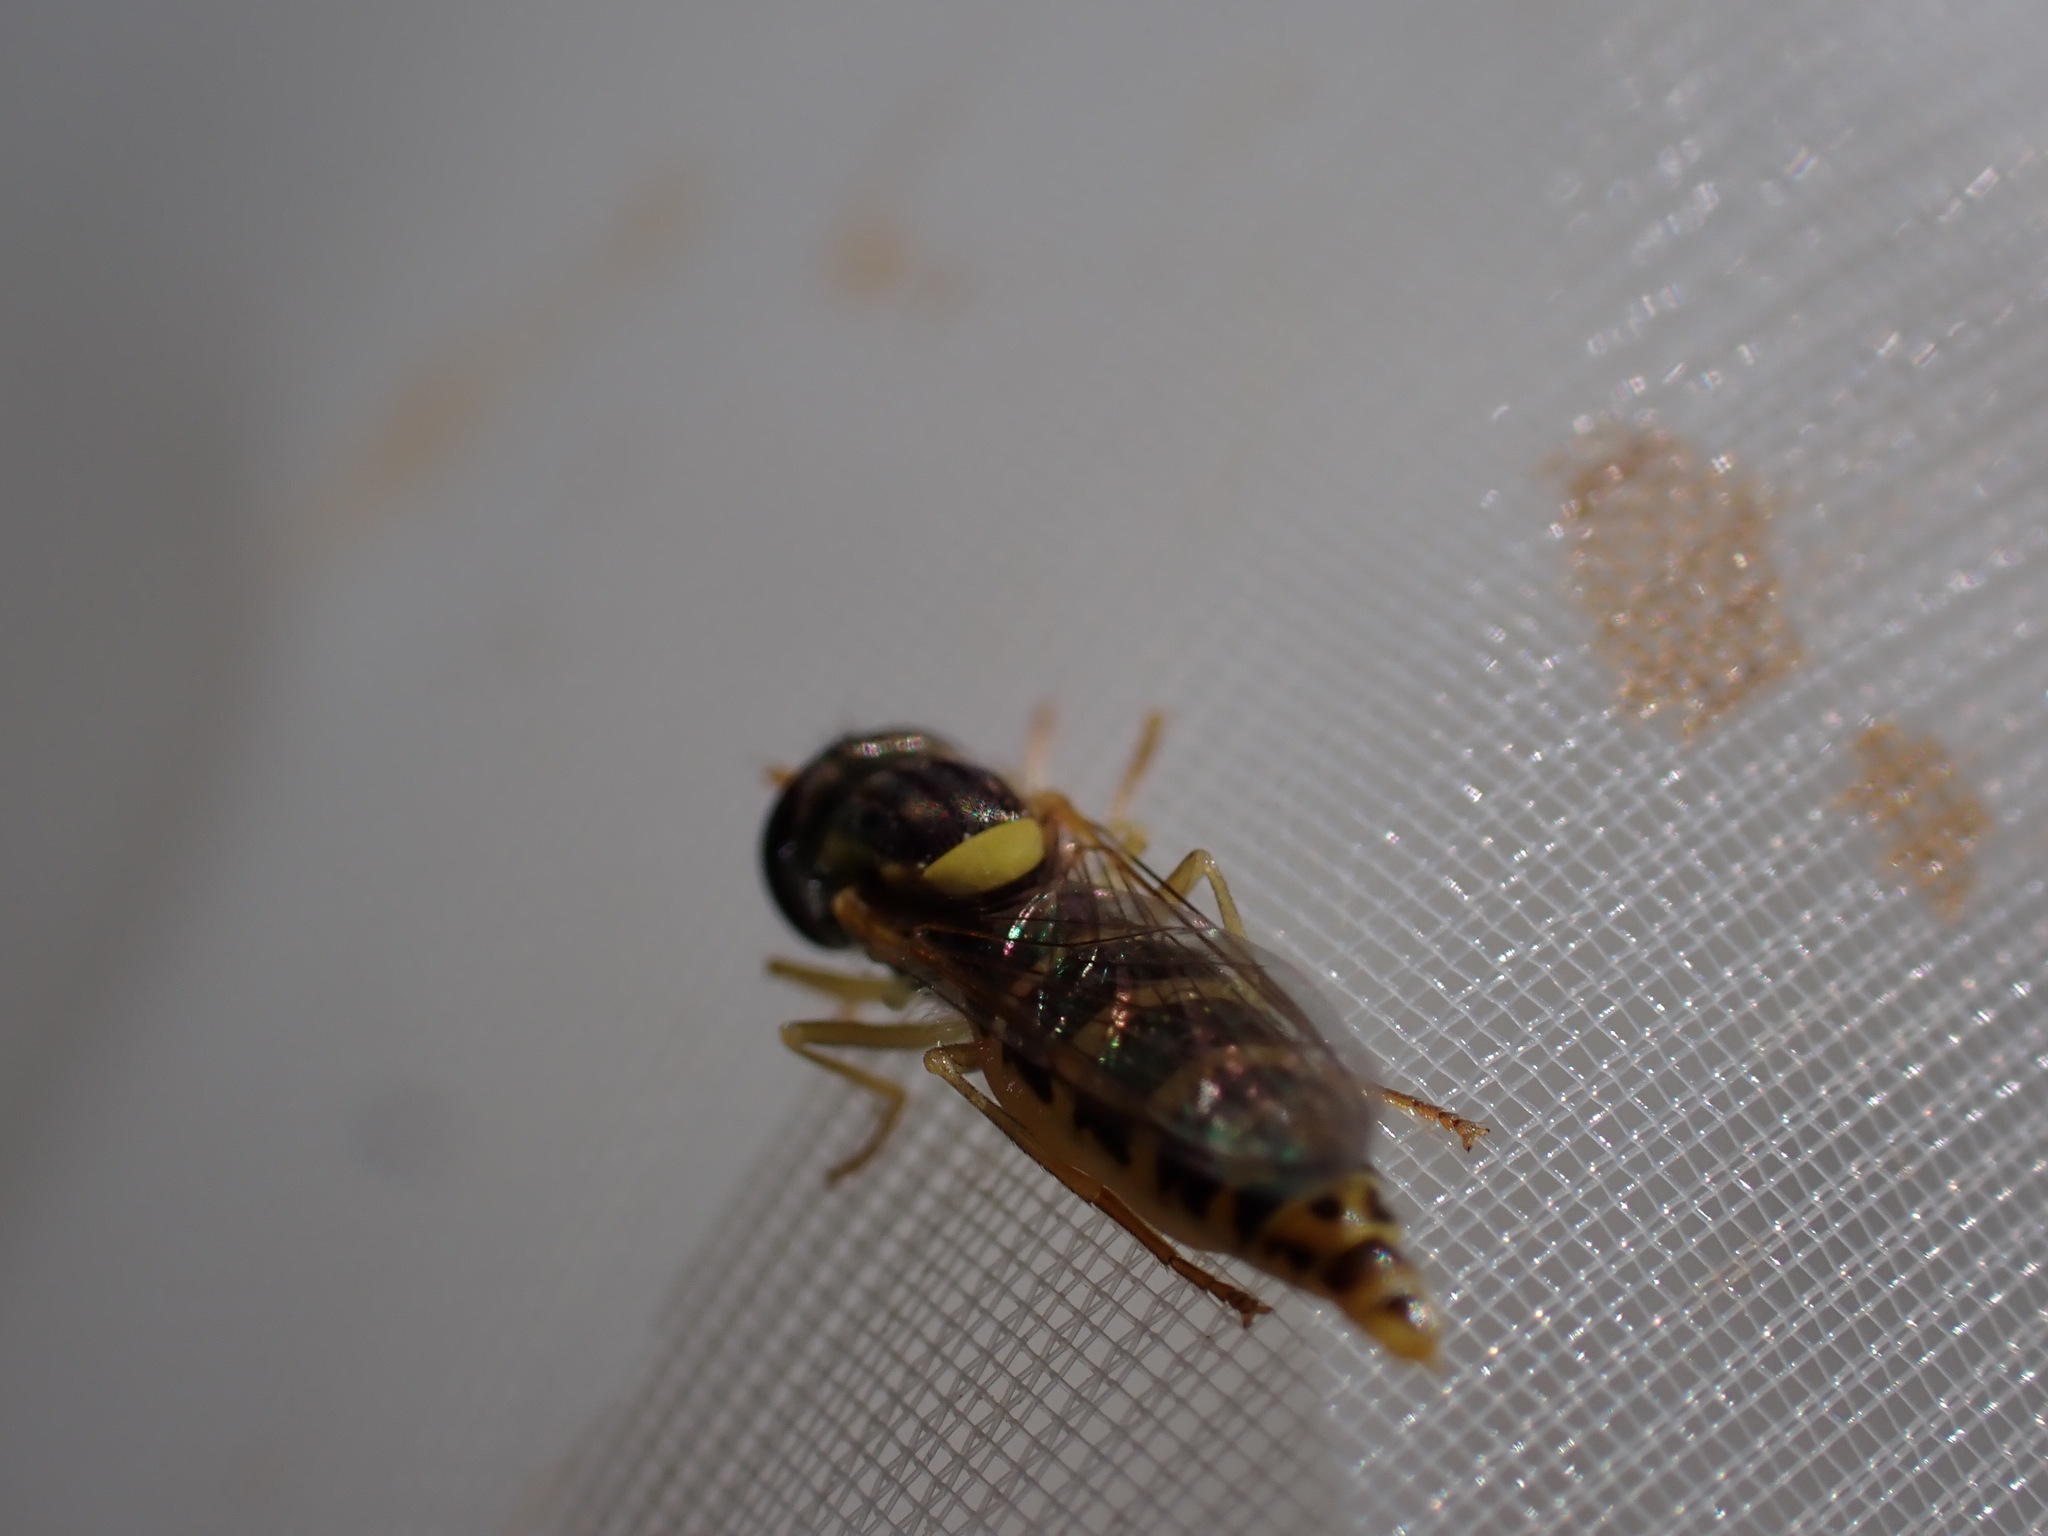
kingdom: Animalia
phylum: Arthropoda
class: Insecta
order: Diptera
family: Syrphidae
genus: Sphaerophoria
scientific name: Sphaerophoria
